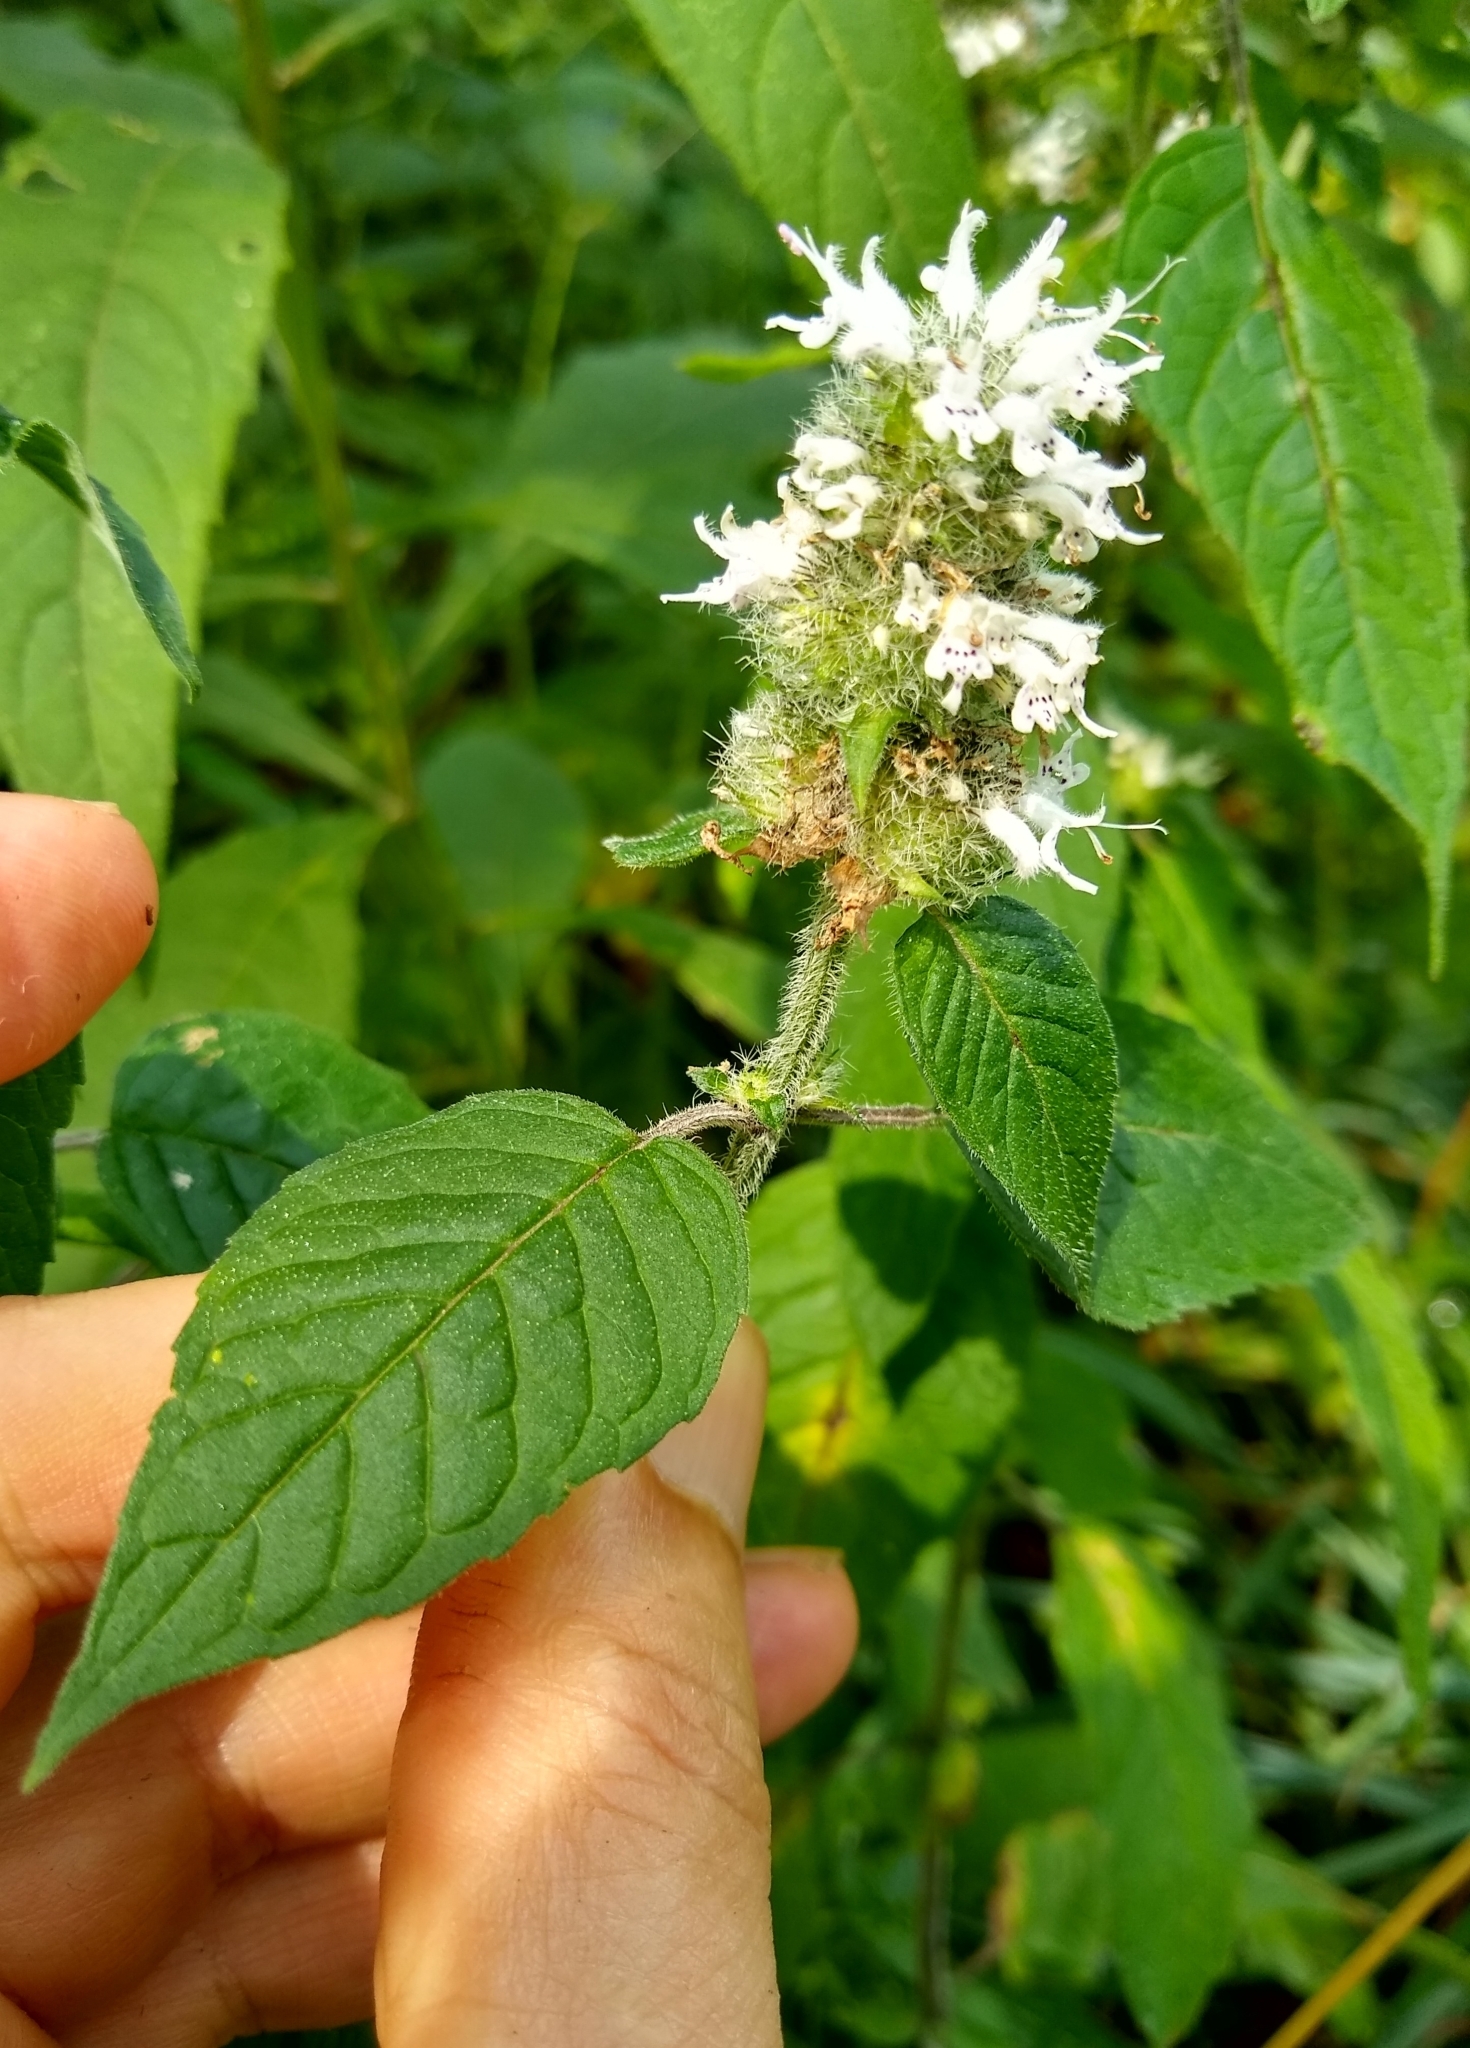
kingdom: Plantae
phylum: Tracheophyta
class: Magnoliopsida
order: Lamiales
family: Lamiaceae
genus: Blephilia
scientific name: Blephilia hirsuta
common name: Hairy blephilia
